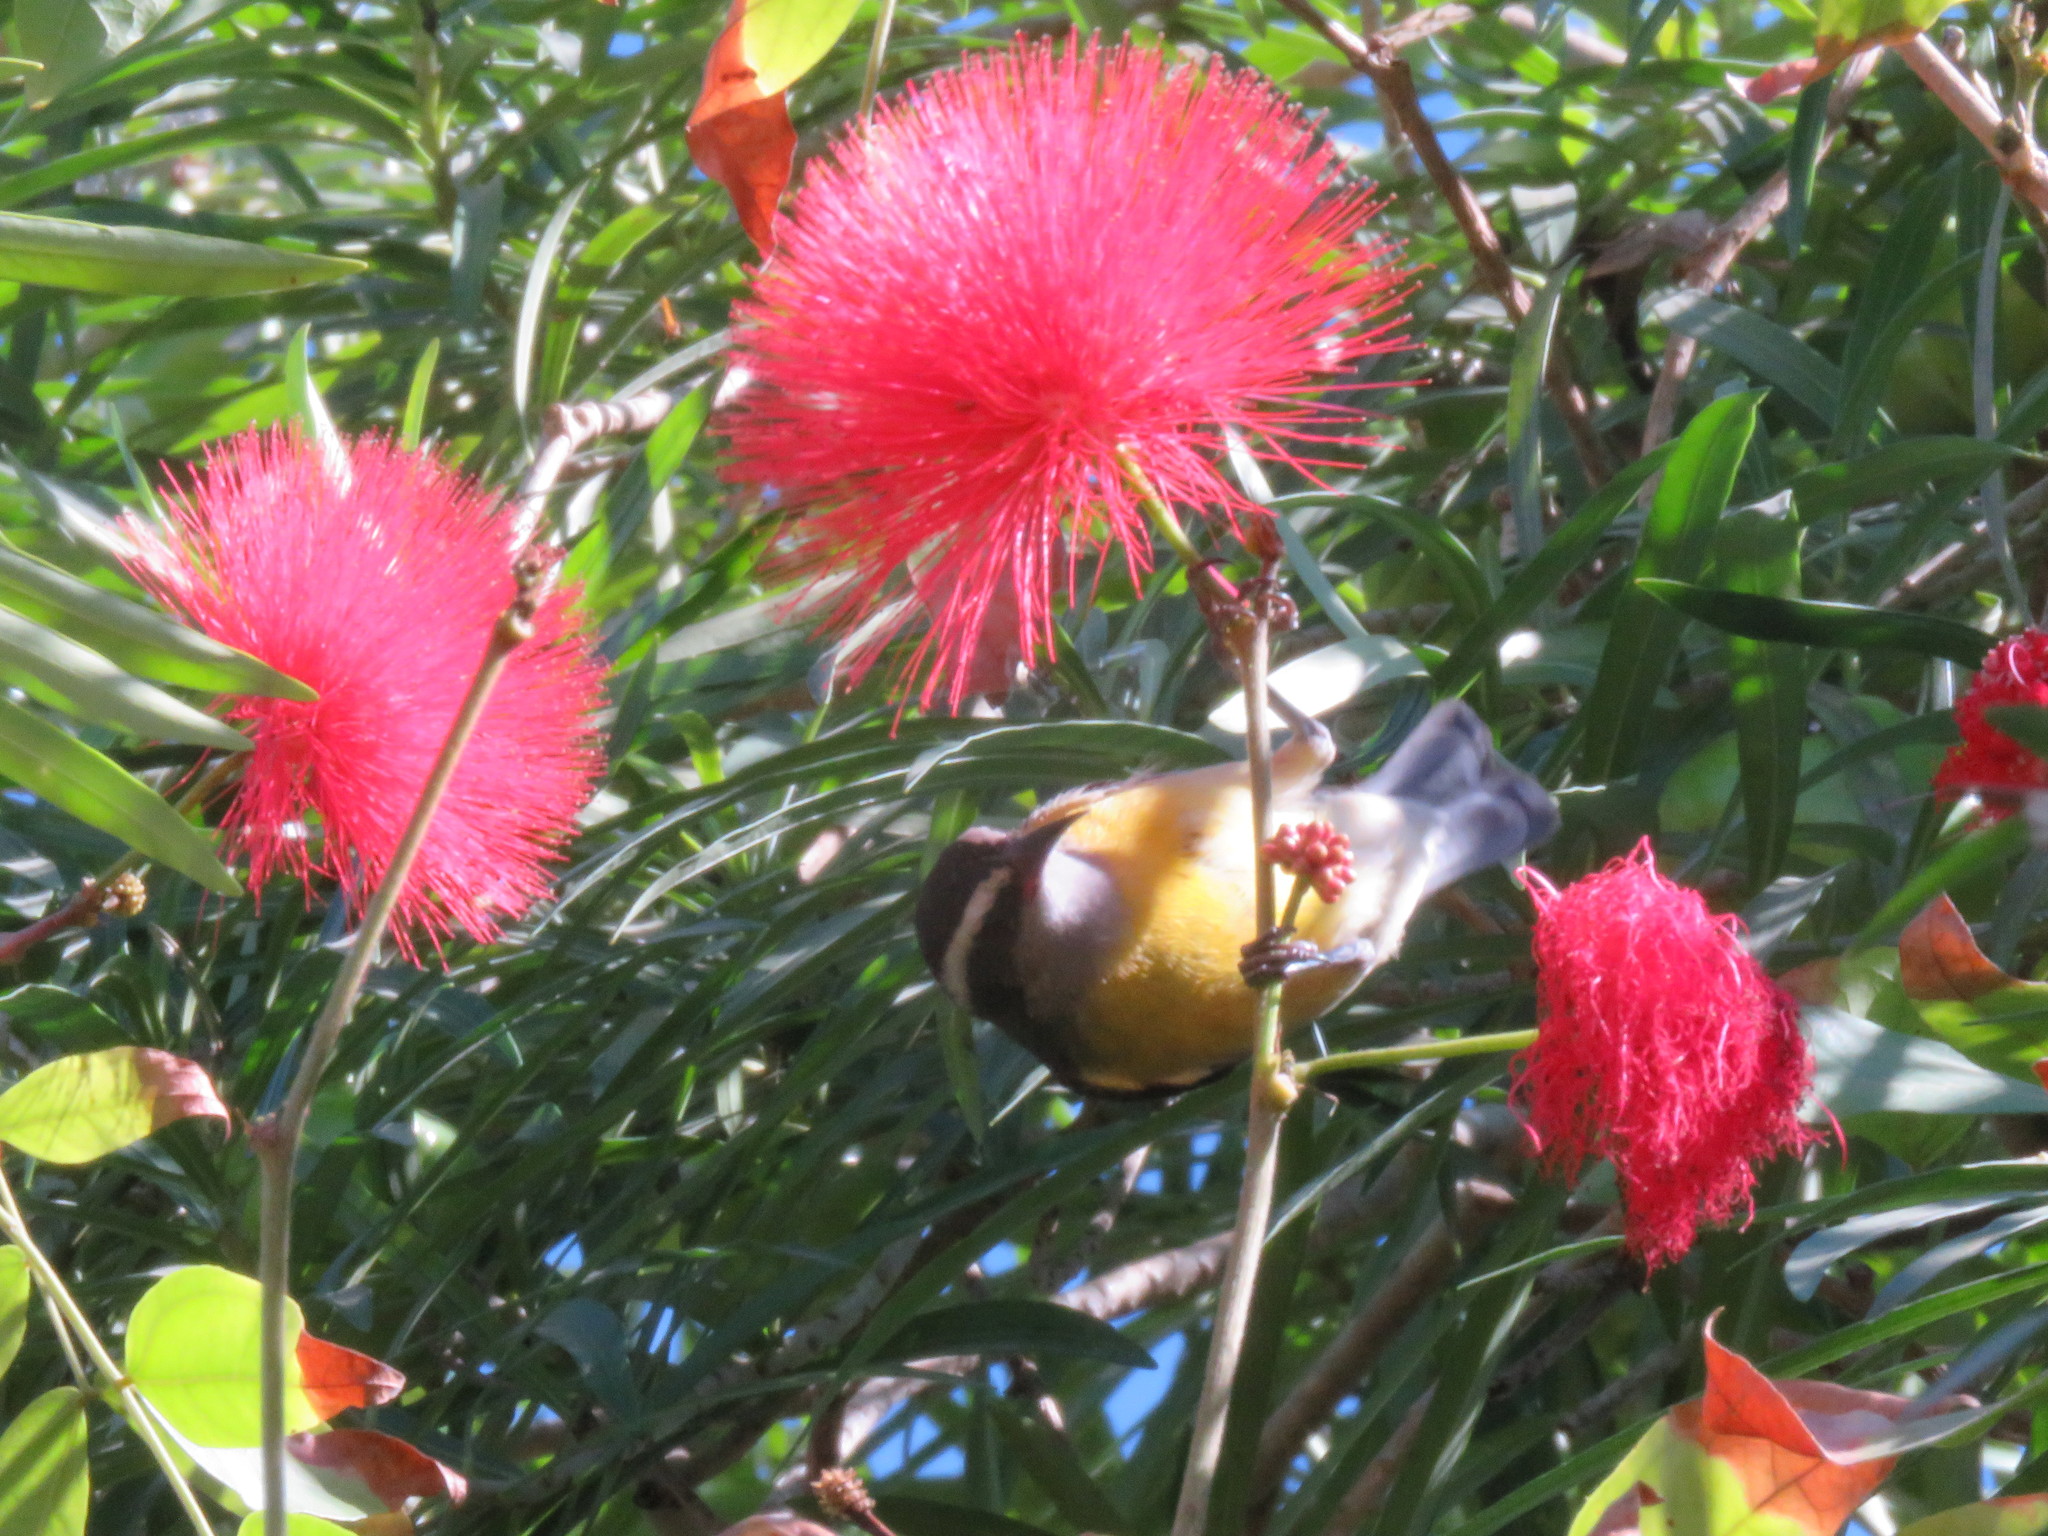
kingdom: Animalia
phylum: Chordata
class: Aves
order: Passeriformes
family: Thraupidae
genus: Coereba
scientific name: Coereba flaveola
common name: Bananaquit
